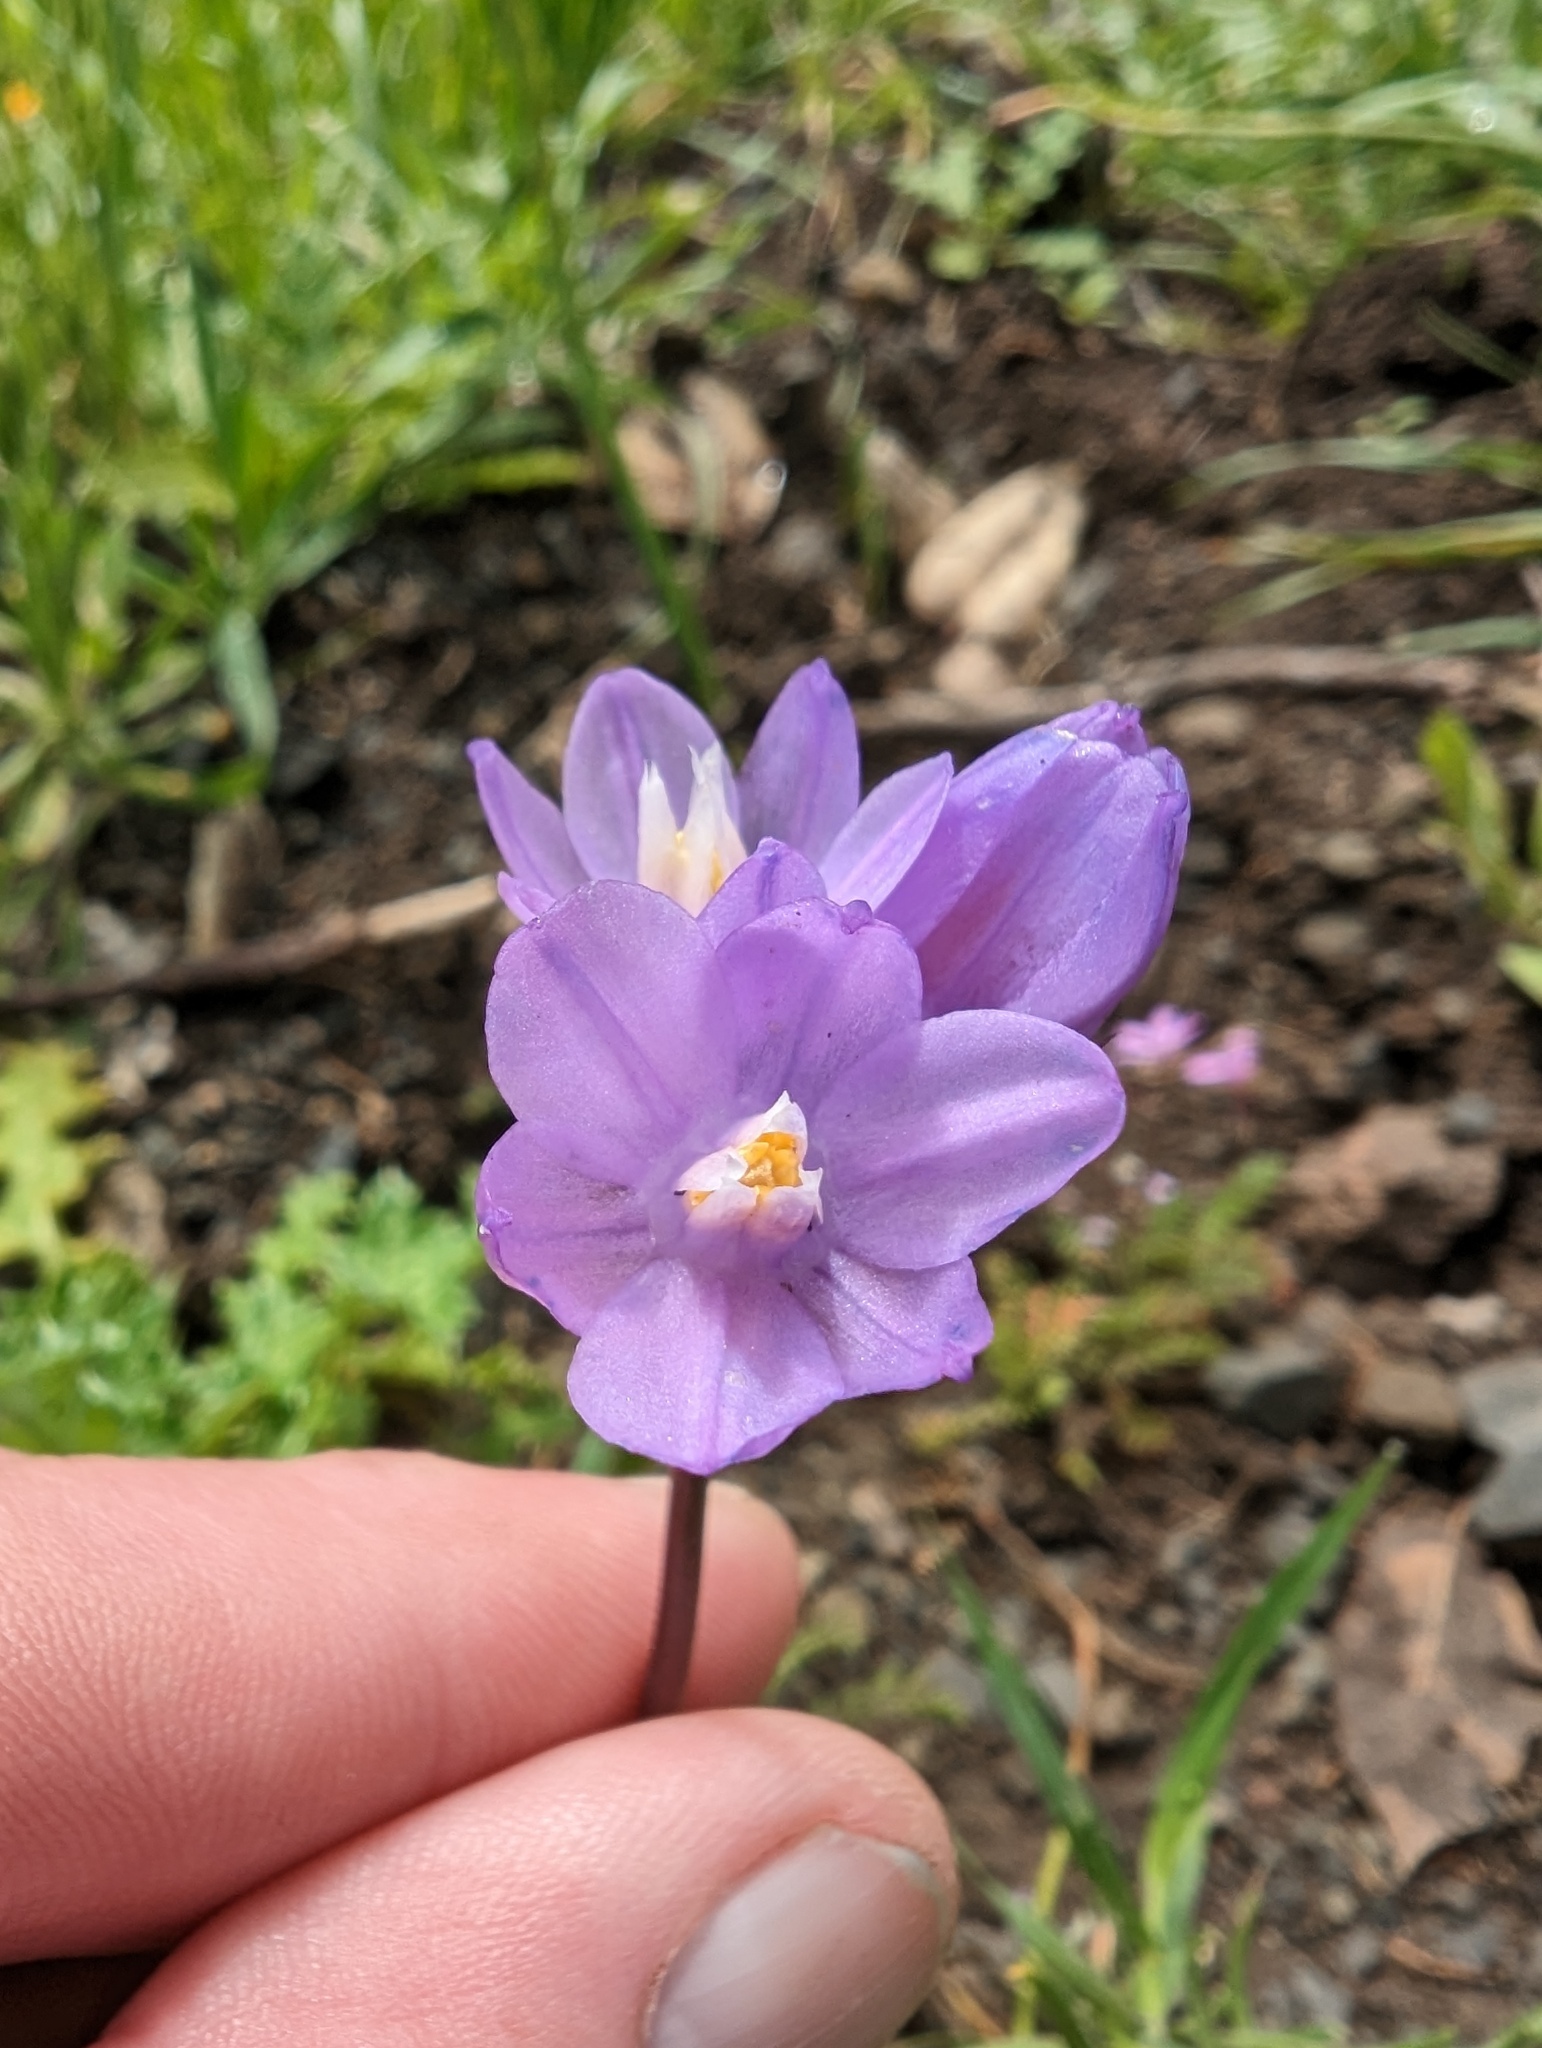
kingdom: Plantae
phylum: Tracheophyta
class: Liliopsida
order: Asparagales
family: Asparagaceae
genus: Dipterostemon
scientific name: Dipterostemon capitatus
